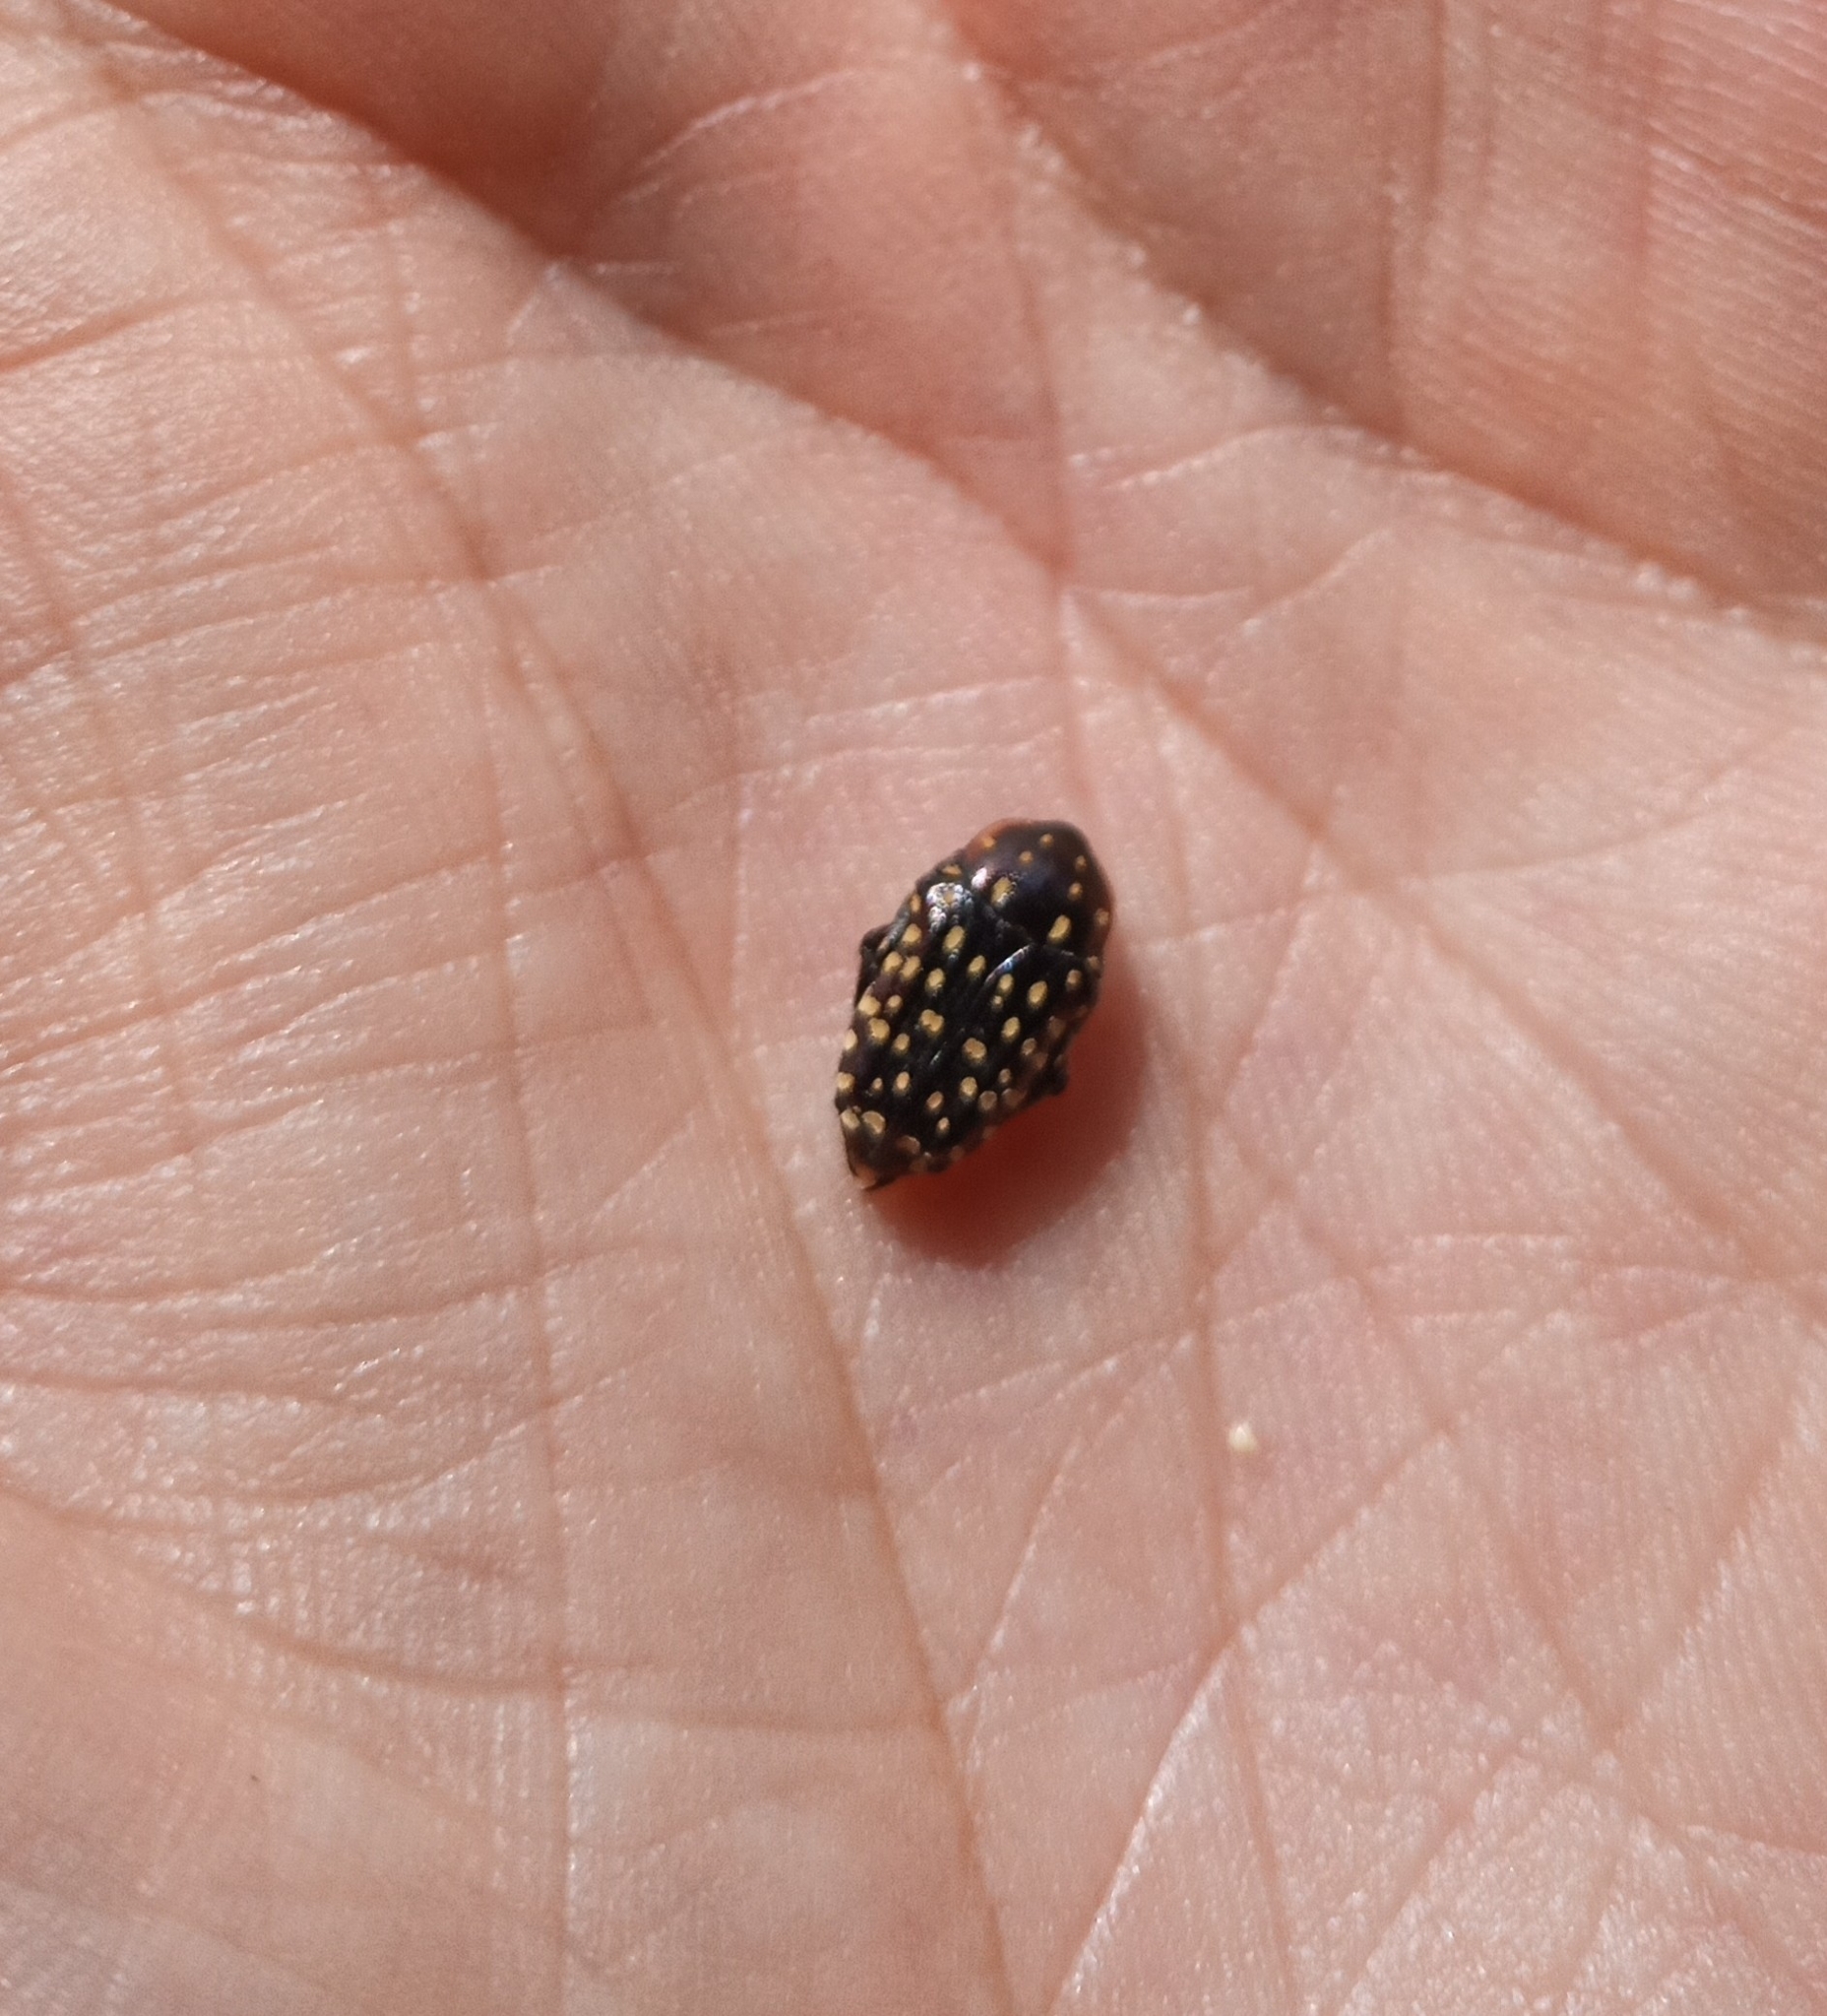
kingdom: Animalia
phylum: Arthropoda
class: Insecta
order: Coleoptera
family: Scarabaeidae
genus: Oxythyrea
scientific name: Oxythyrea
